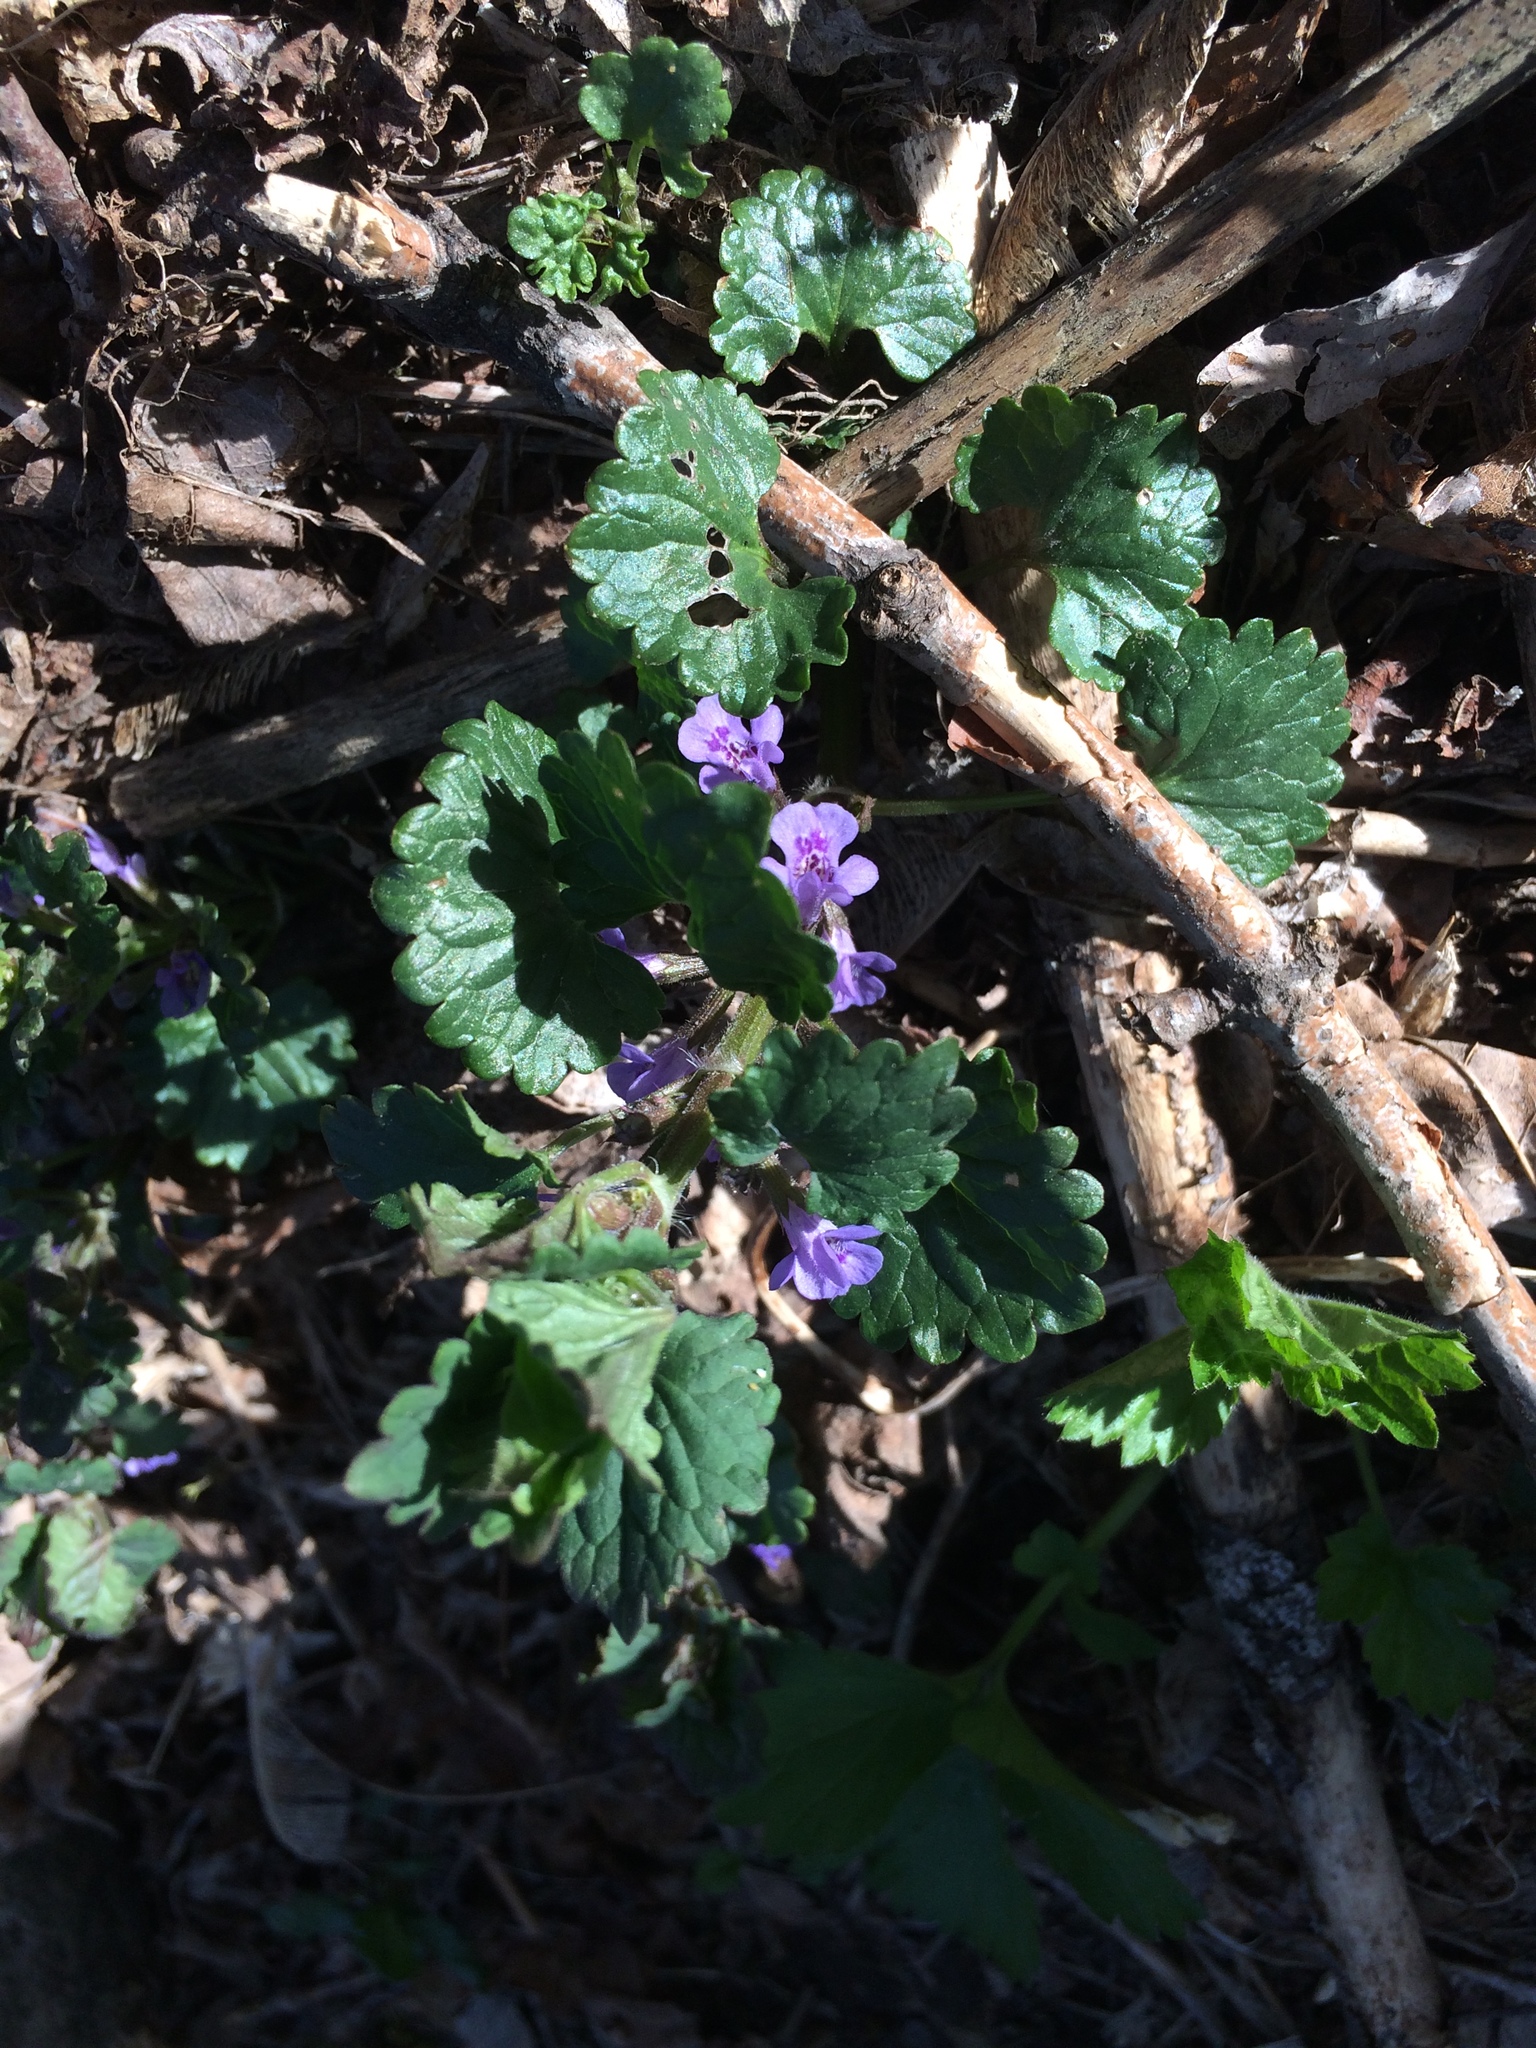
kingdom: Plantae
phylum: Tracheophyta
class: Magnoliopsida
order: Lamiales
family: Lamiaceae
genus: Glechoma
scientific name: Glechoma hederacea
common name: Ground ivy
